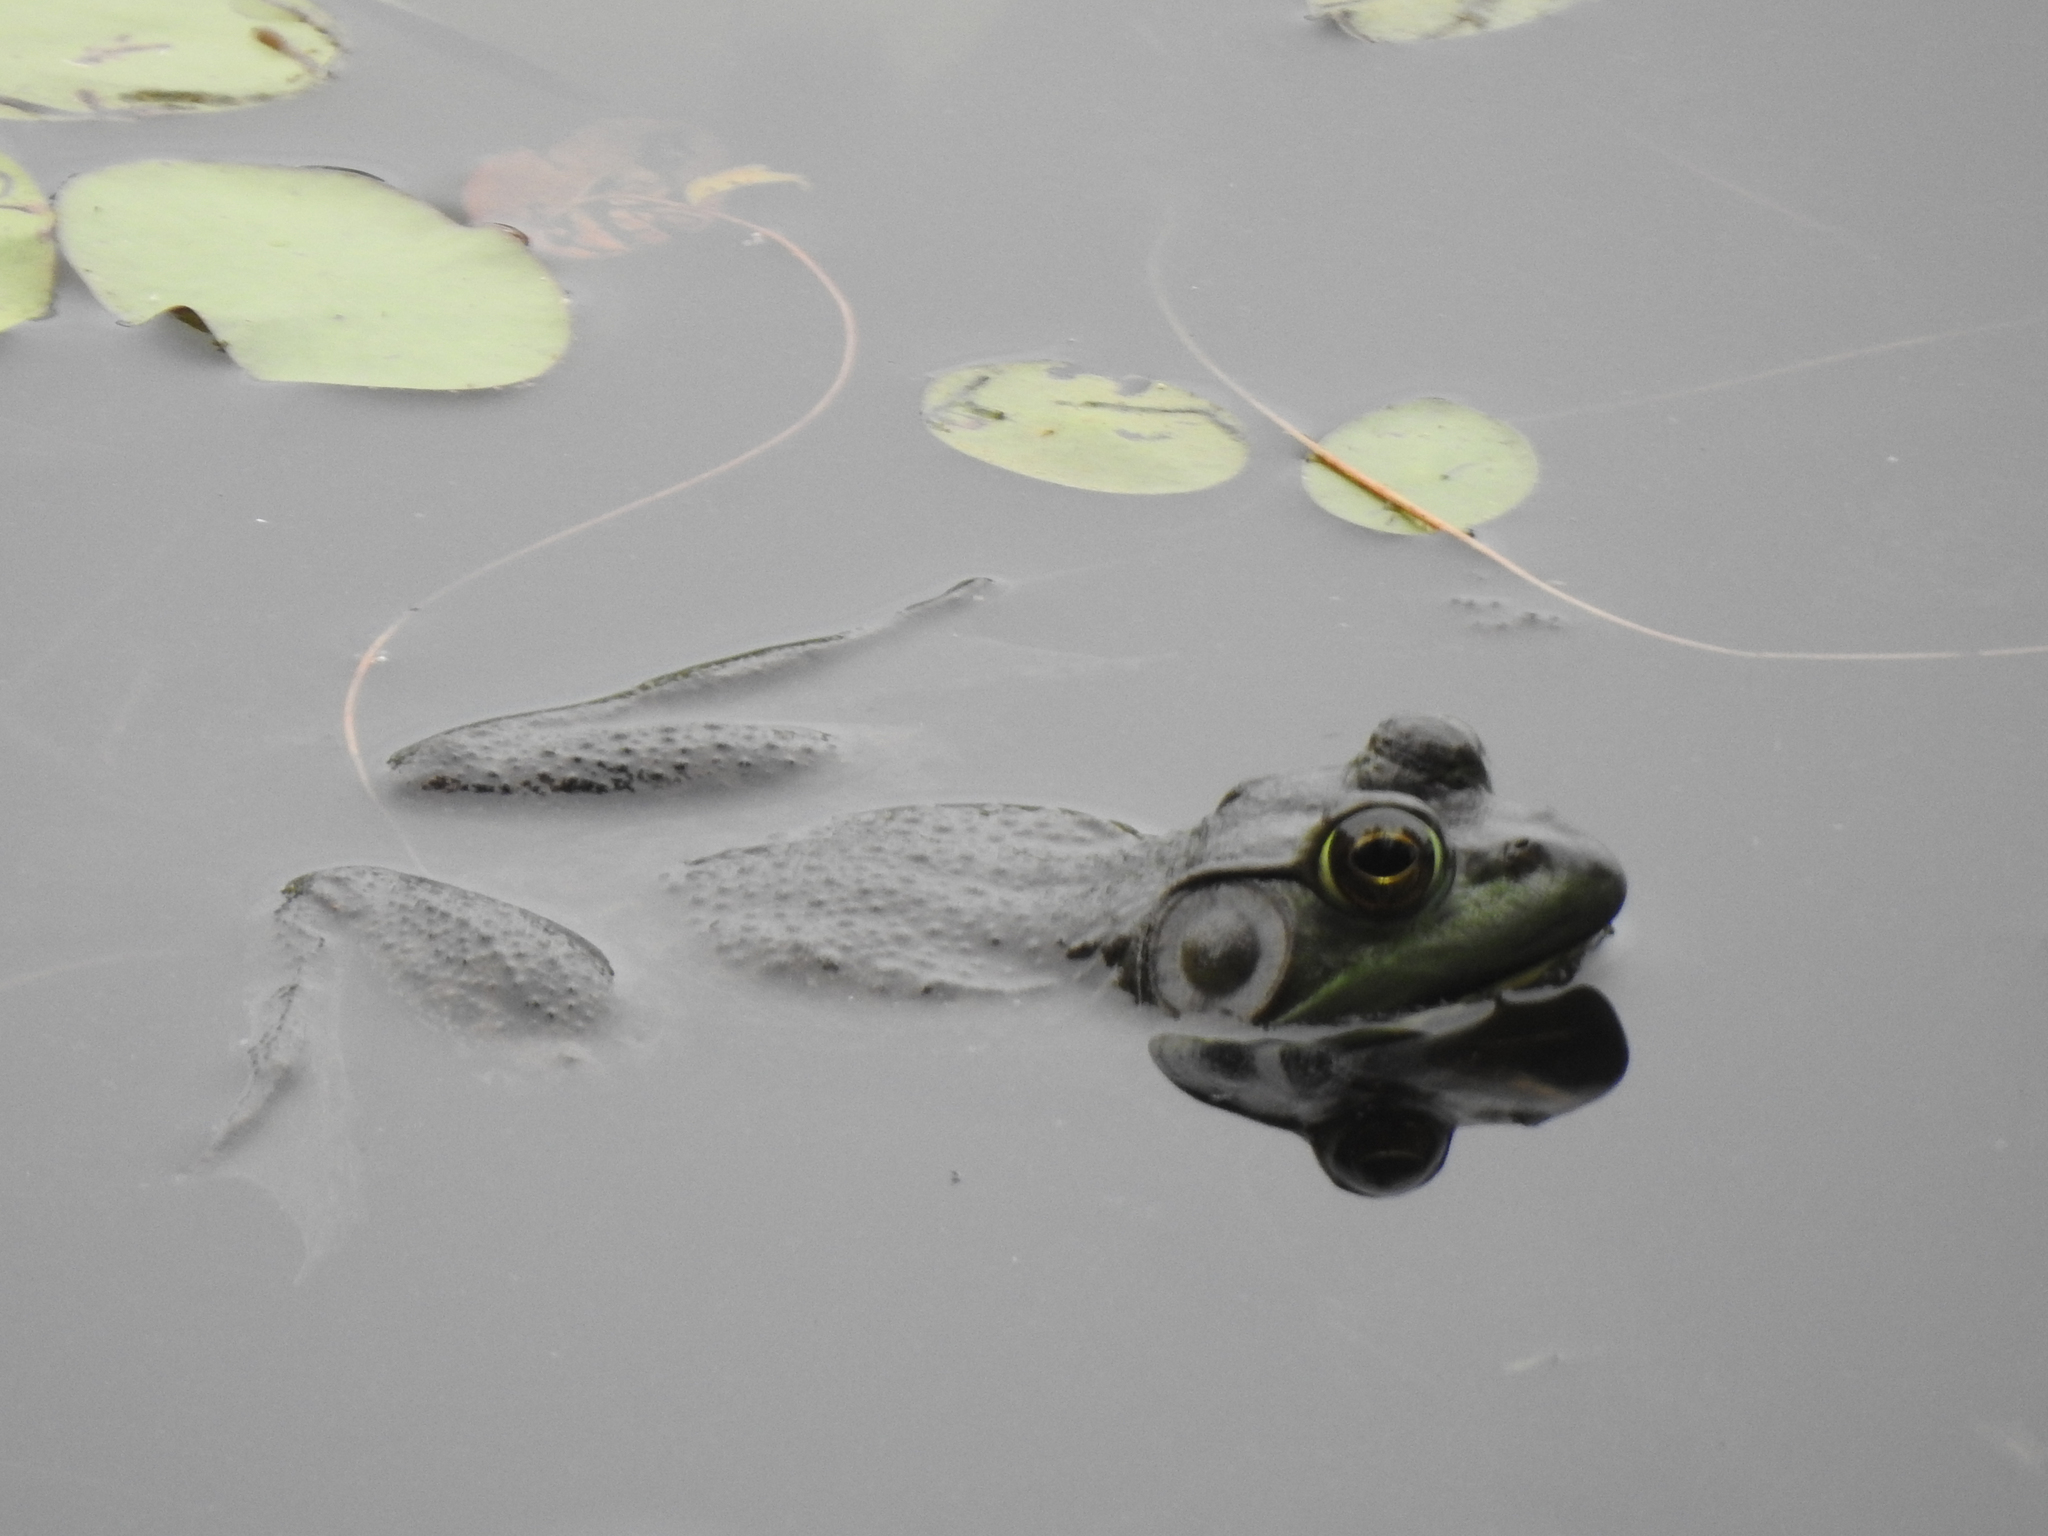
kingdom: Animalia
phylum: Chordata
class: Amphibia
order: Anura
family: Ranidae
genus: Lithobates
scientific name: Lithobates catesbeianus
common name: American bullfrog
